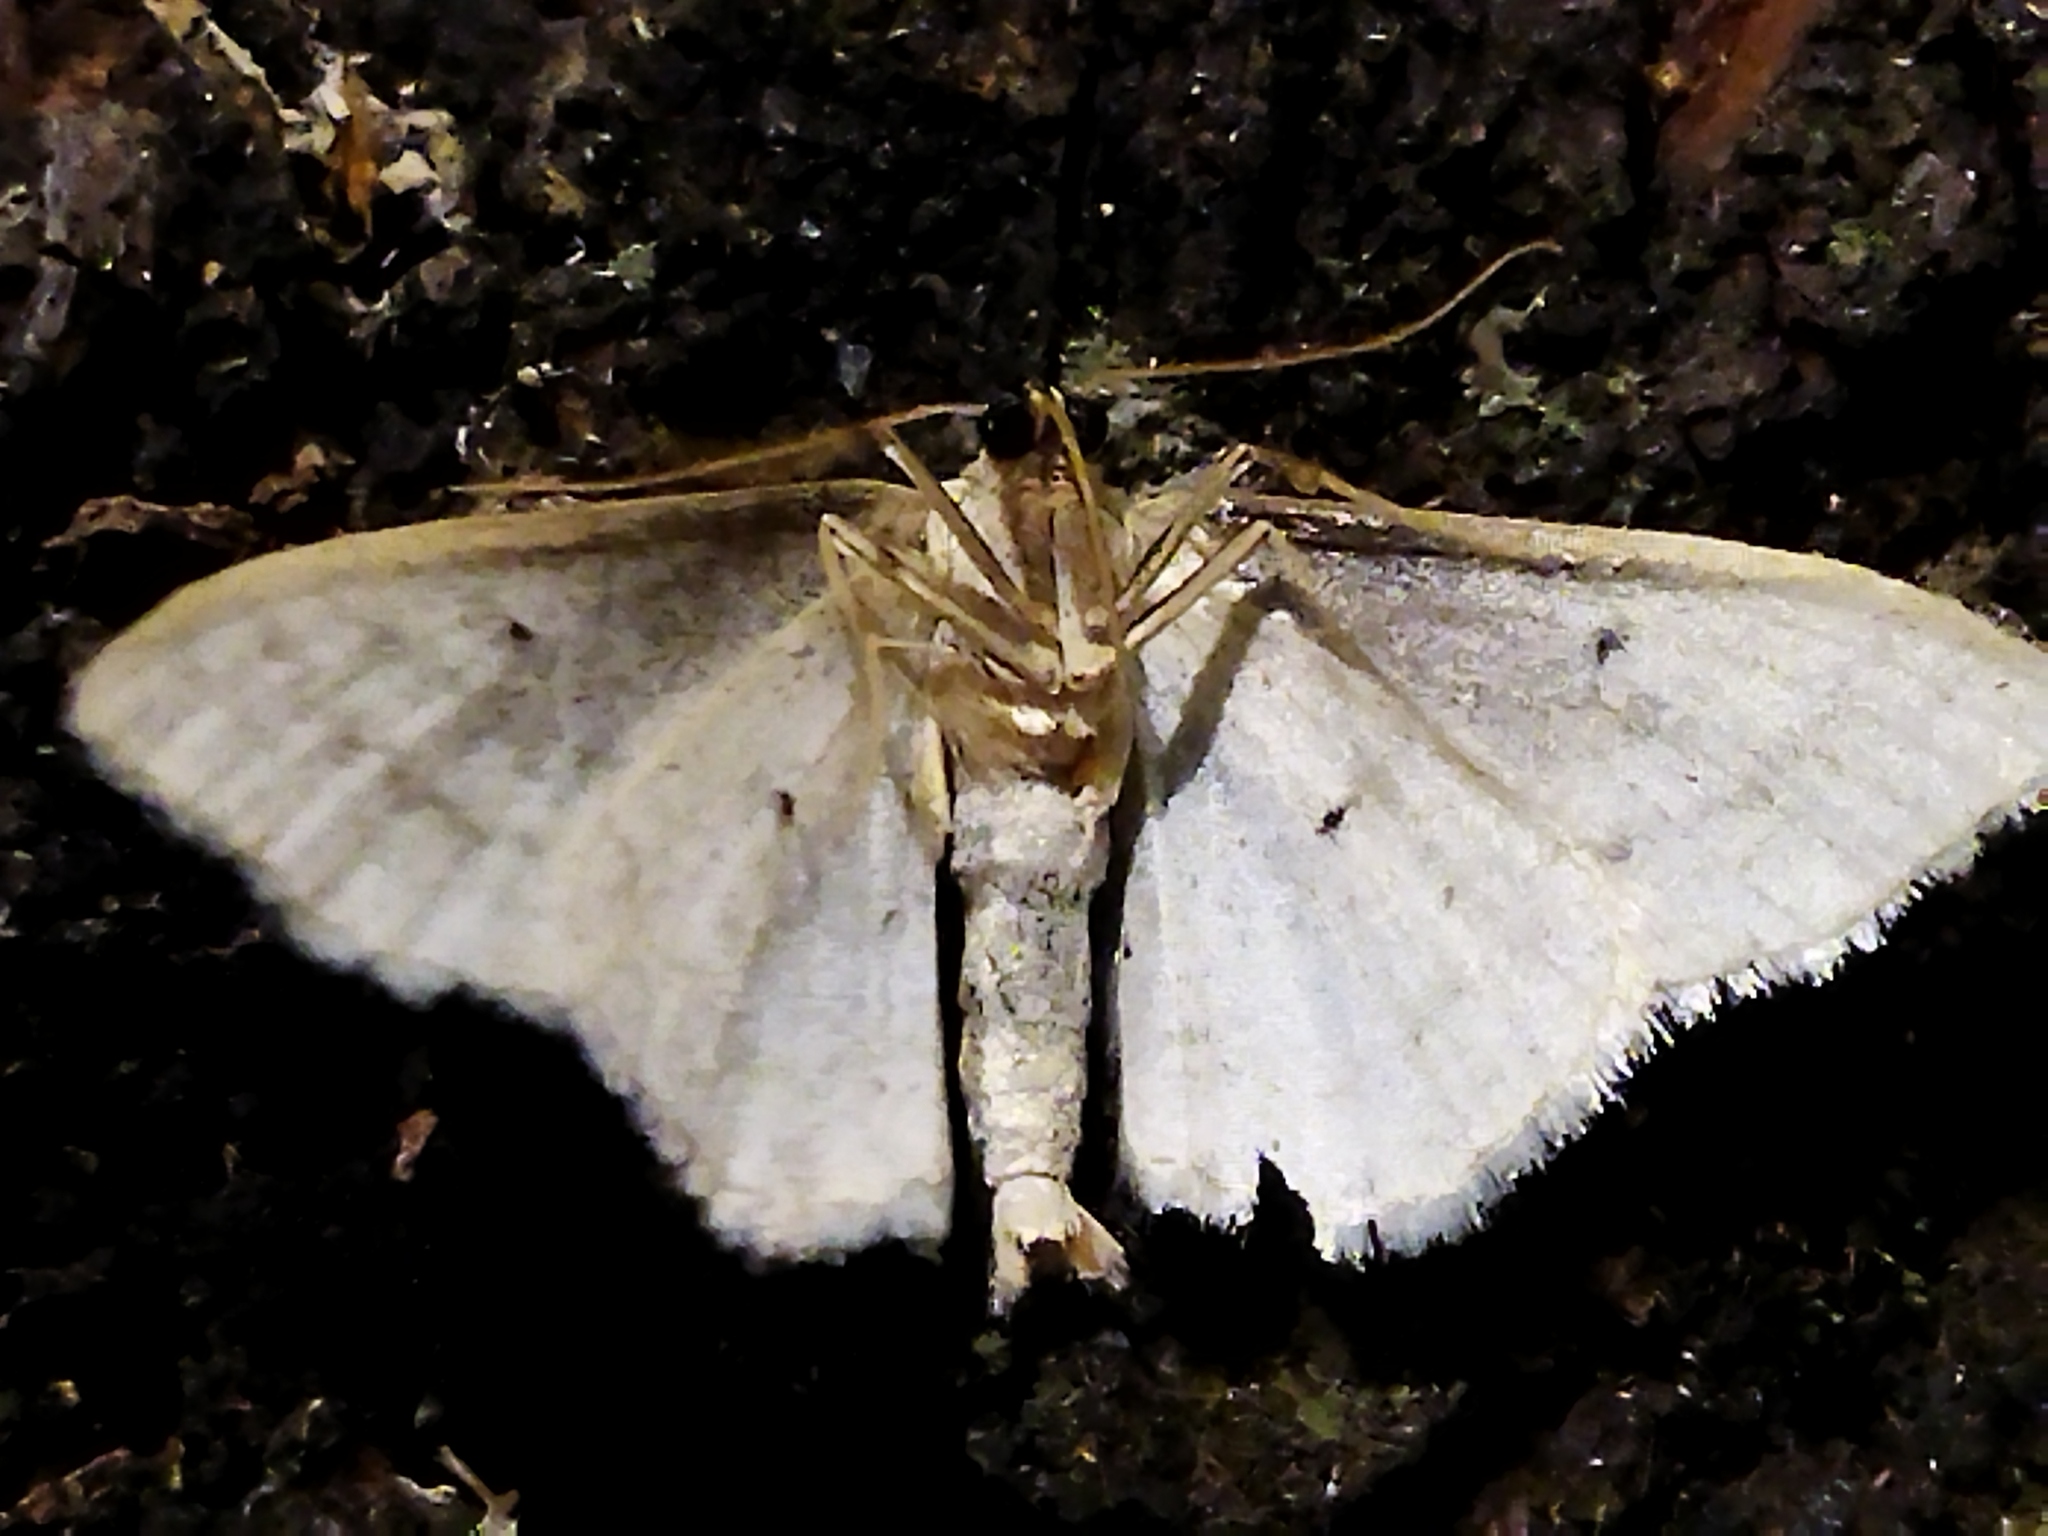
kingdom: Animalia
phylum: Arthropoda
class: Insecta
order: Lepidoptera
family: Geometridae
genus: Idaea
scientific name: Idaea subsericeata
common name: Satin wave
